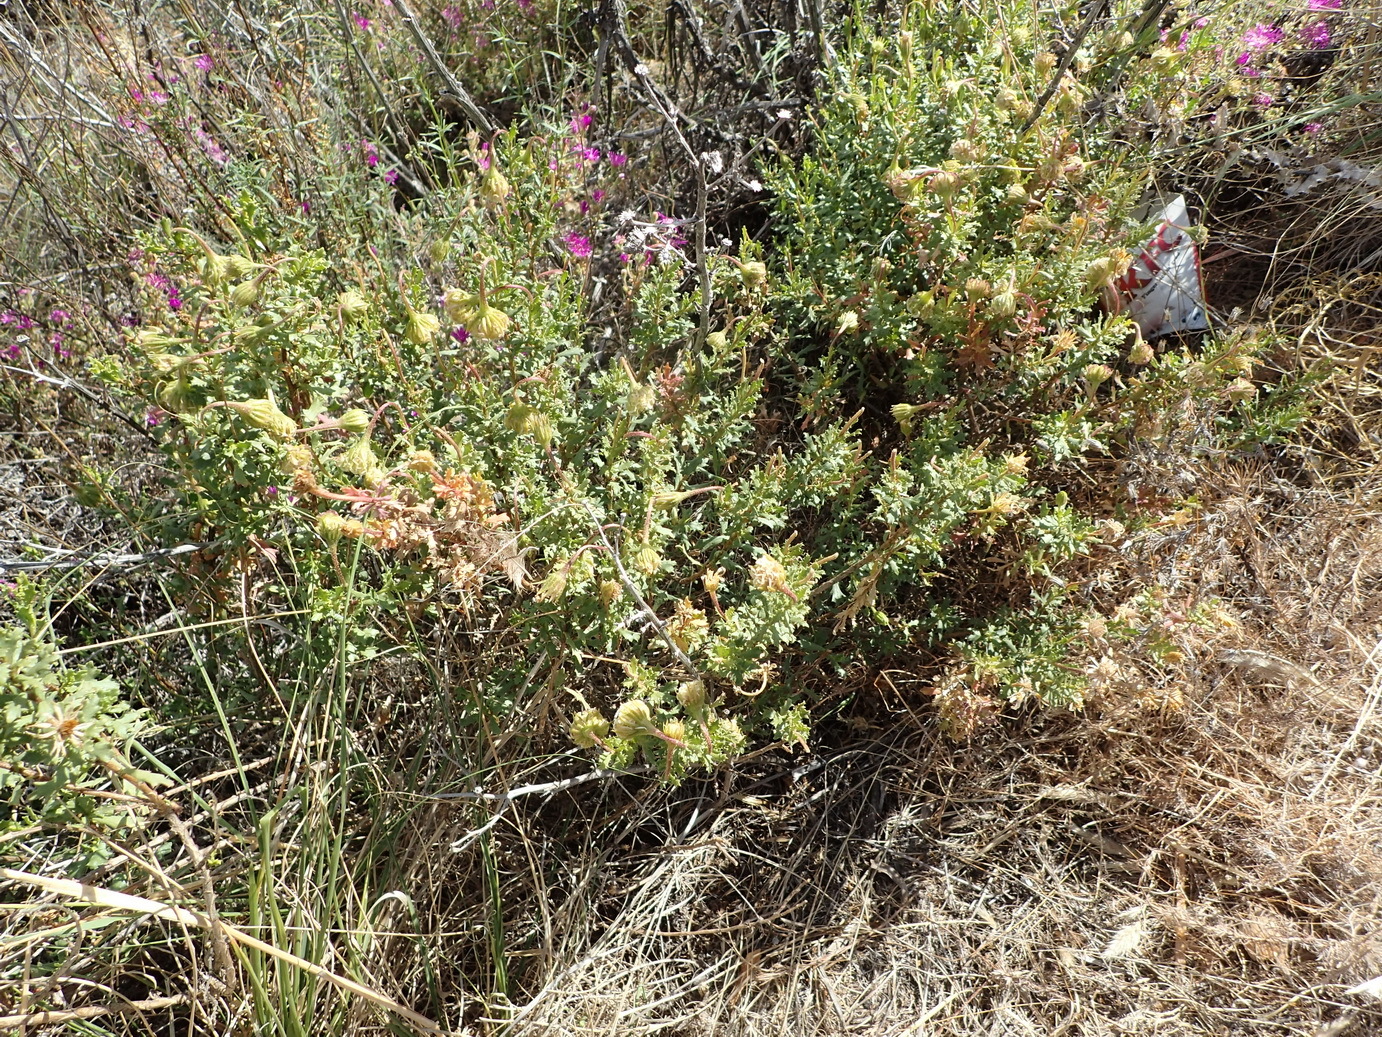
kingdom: Plantae
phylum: Tracheophyta
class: Magnoliopsida
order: Asterales
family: Asteraceae
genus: Dimorphotheca
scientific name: Dimorphotheca cuneata
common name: Daisy
